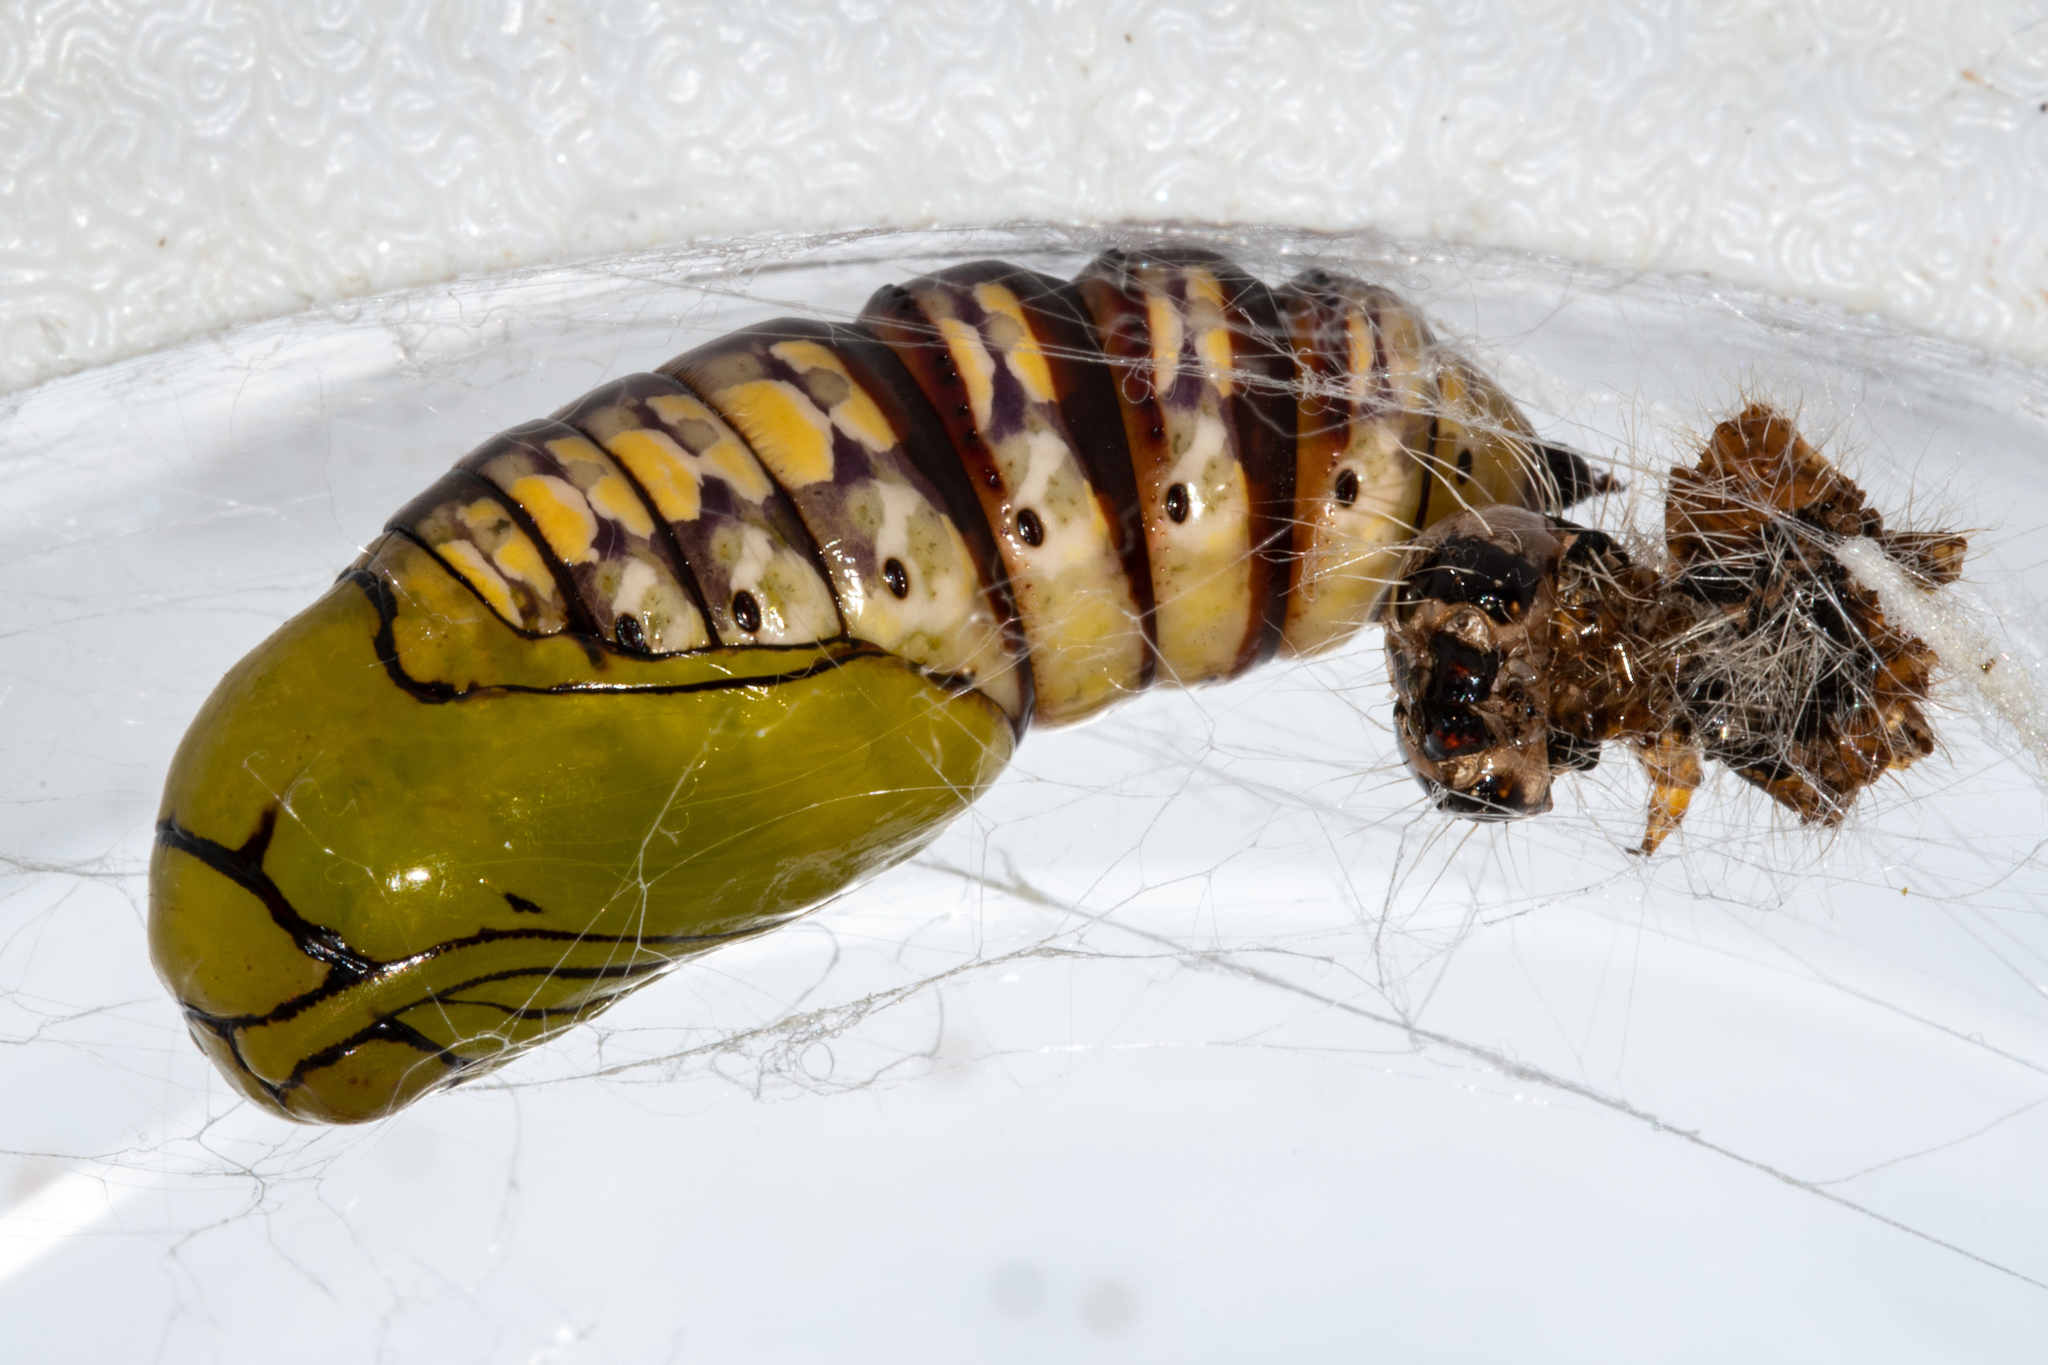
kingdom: Animalia
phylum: Arthropoda
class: Insecta
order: Lepidoptera
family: Noctuidae
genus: Nyodes
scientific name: Nyodes lutescens
